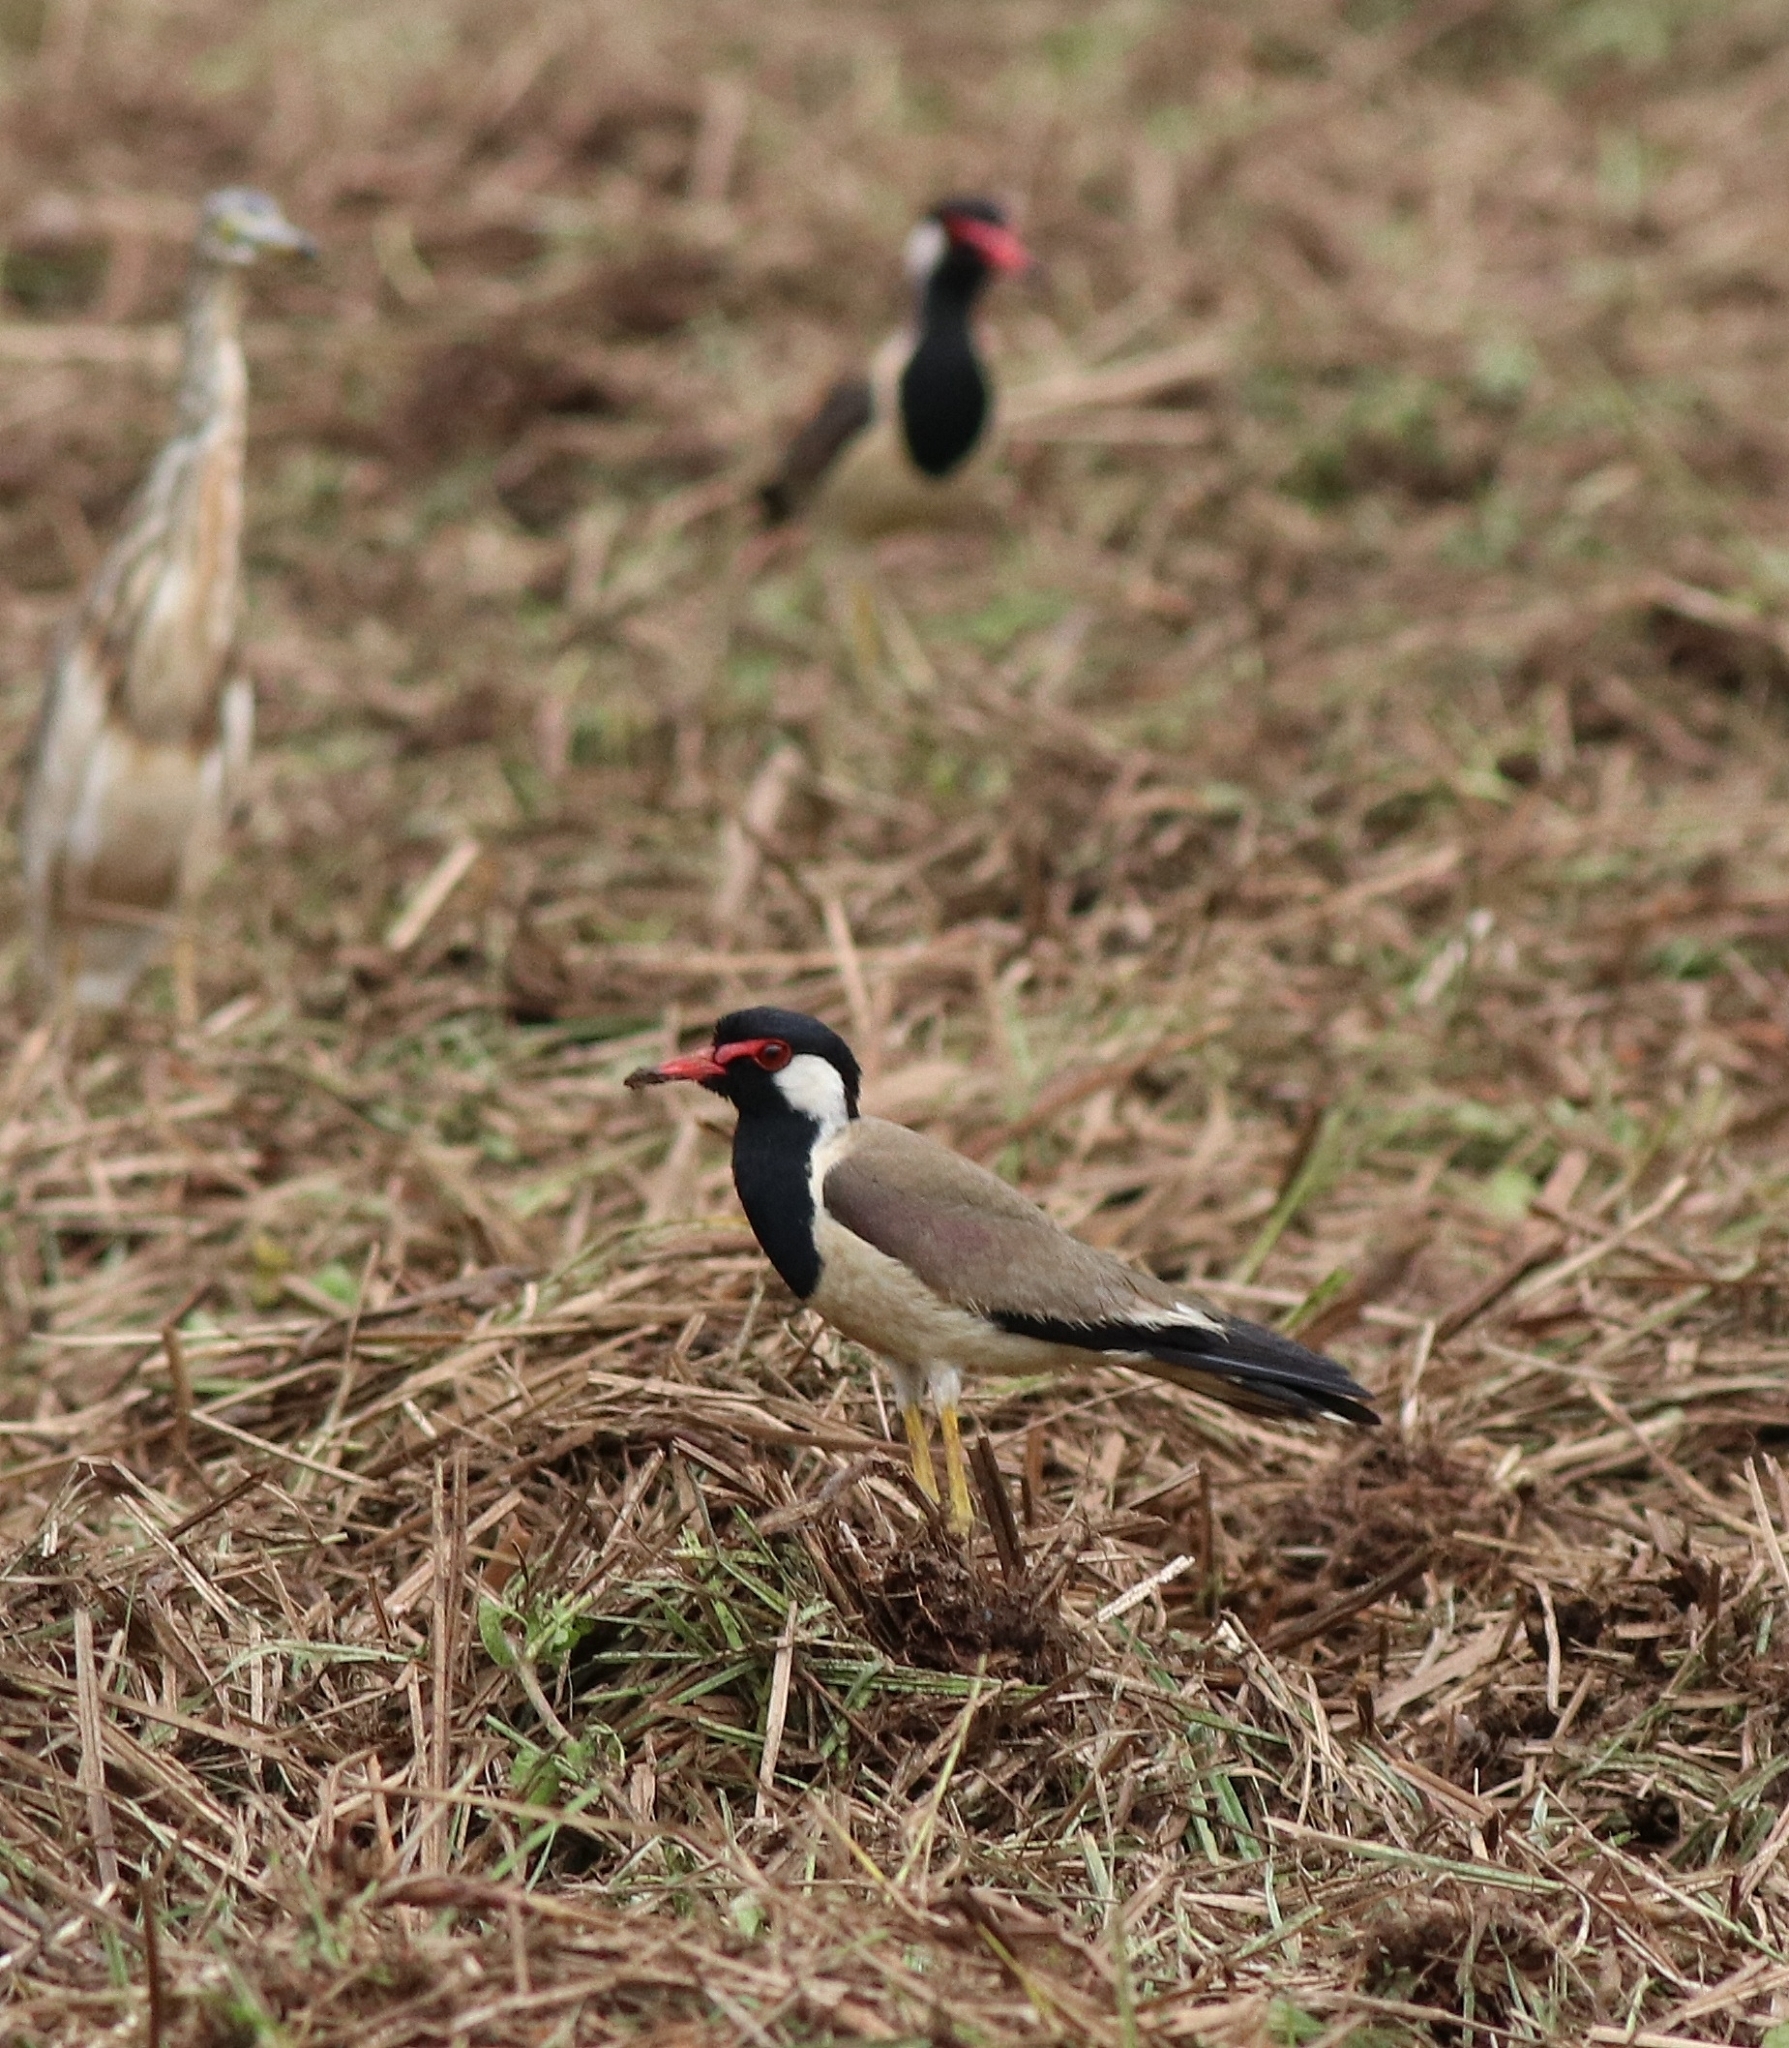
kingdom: Animalia
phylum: Chordata
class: Aves
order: Charadriiformes
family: Charadriidae
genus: Vanellus
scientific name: Vanellus indicus
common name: Red-wattled lapwing
